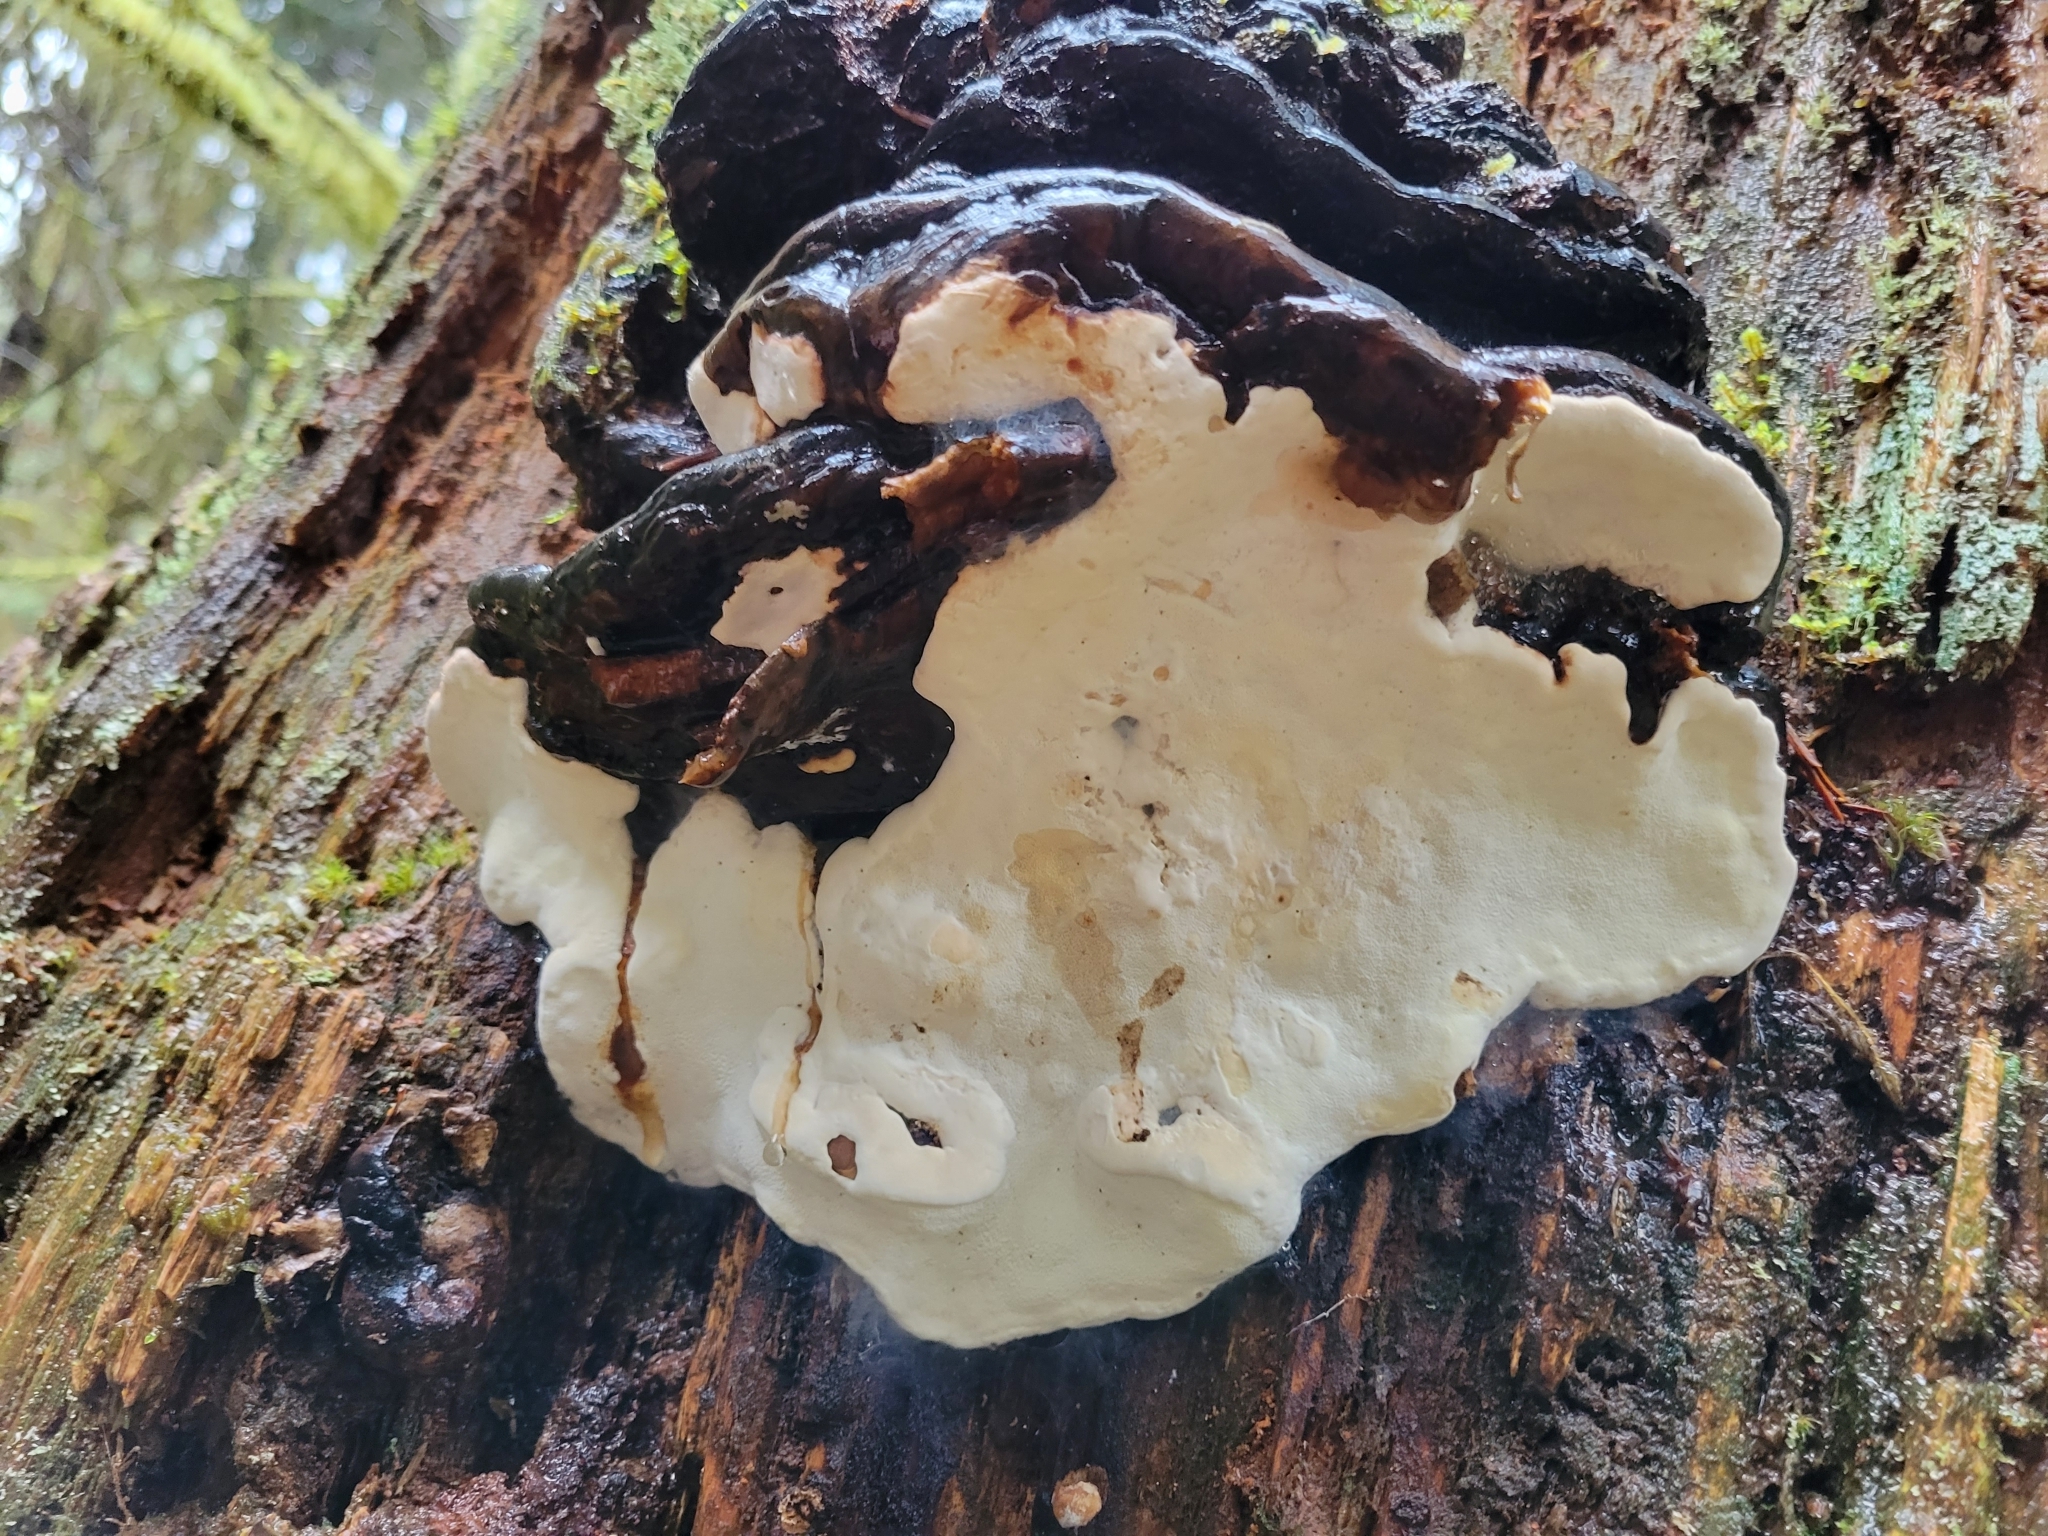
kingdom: Fungi
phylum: Basidiomycota
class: Agaricomycetes
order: Polyporales
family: Fomitopsidaceae
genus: Fomitopsis
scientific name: Fomitopsis ochracea
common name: American brown fomitopsis
